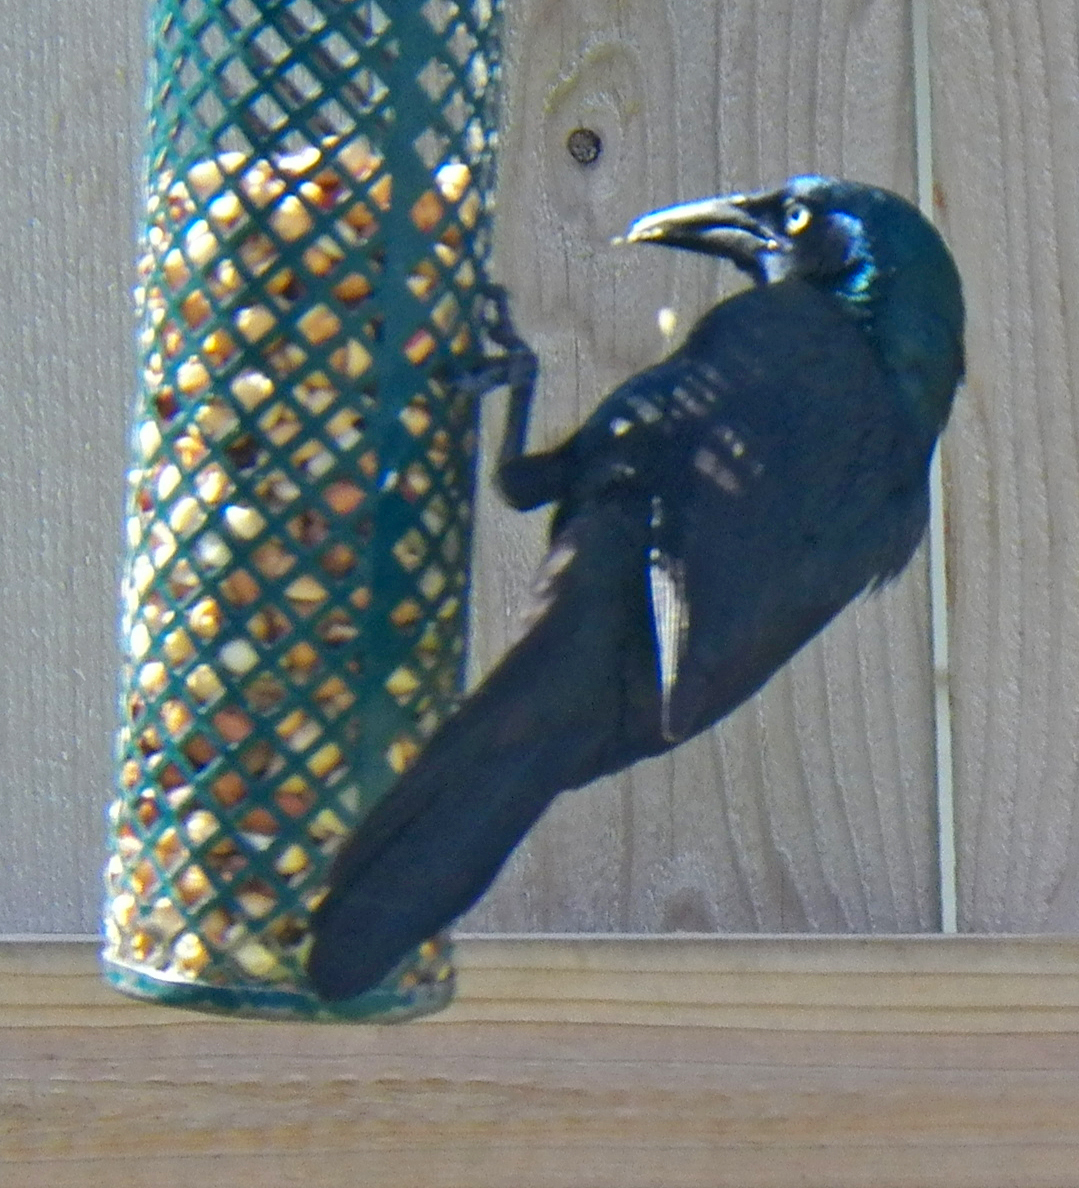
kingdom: Animalia
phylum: Chordata
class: Aves
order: Passeriformes
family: Icteridae
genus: Quiscalus
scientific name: Quiscalus quiscula
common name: Common grackle
